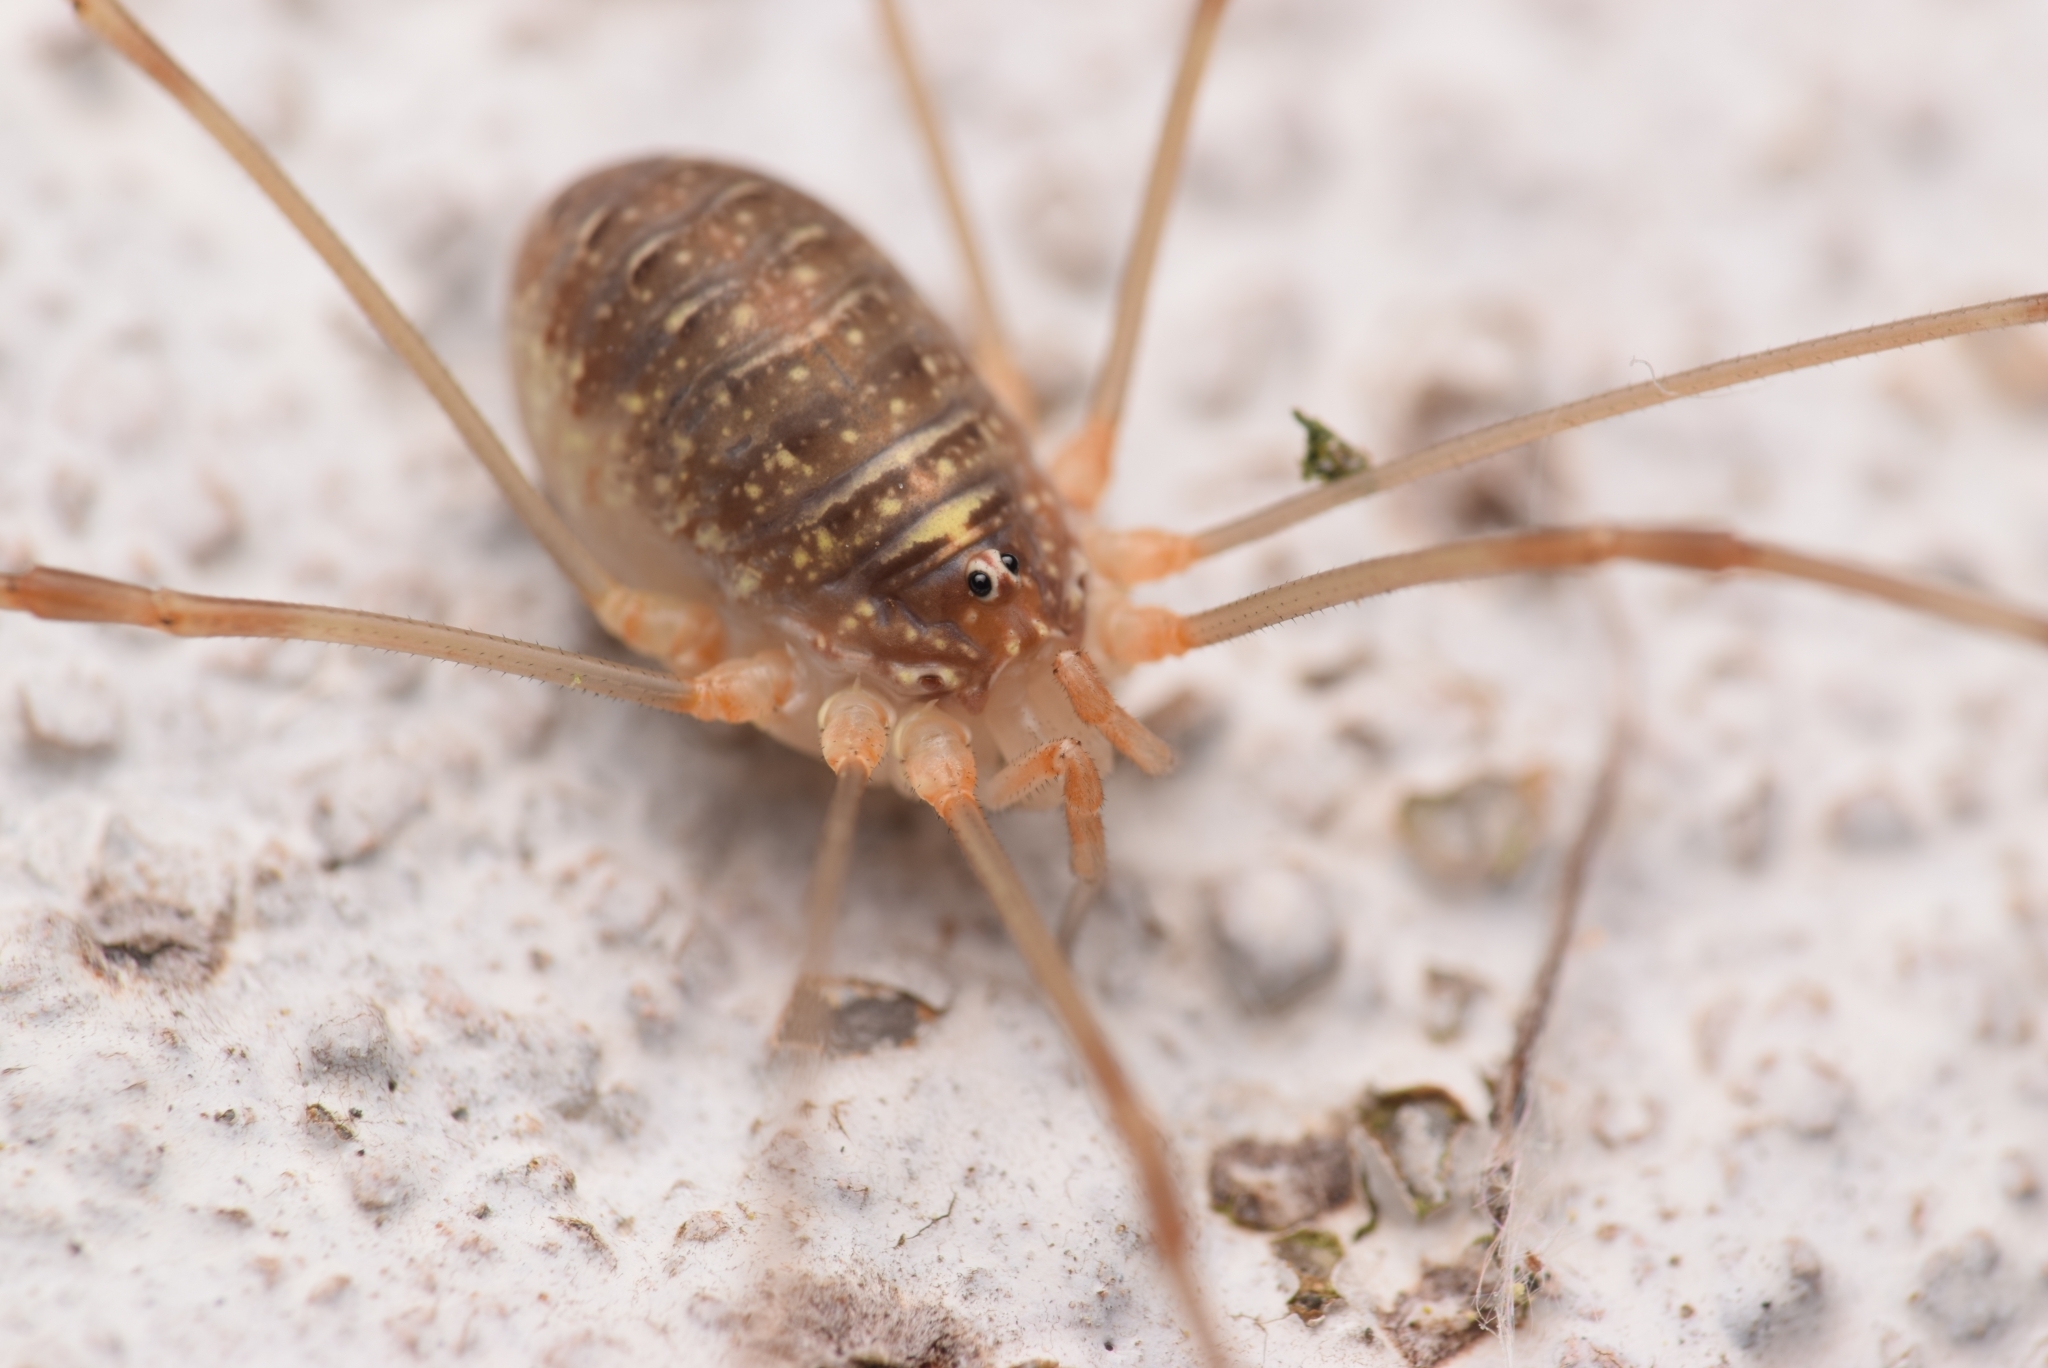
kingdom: Animalia
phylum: Arthropoda
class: Arachnida
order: Opiliones
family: Phalangiidae
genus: Opilio
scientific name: Opilio canestrinii
